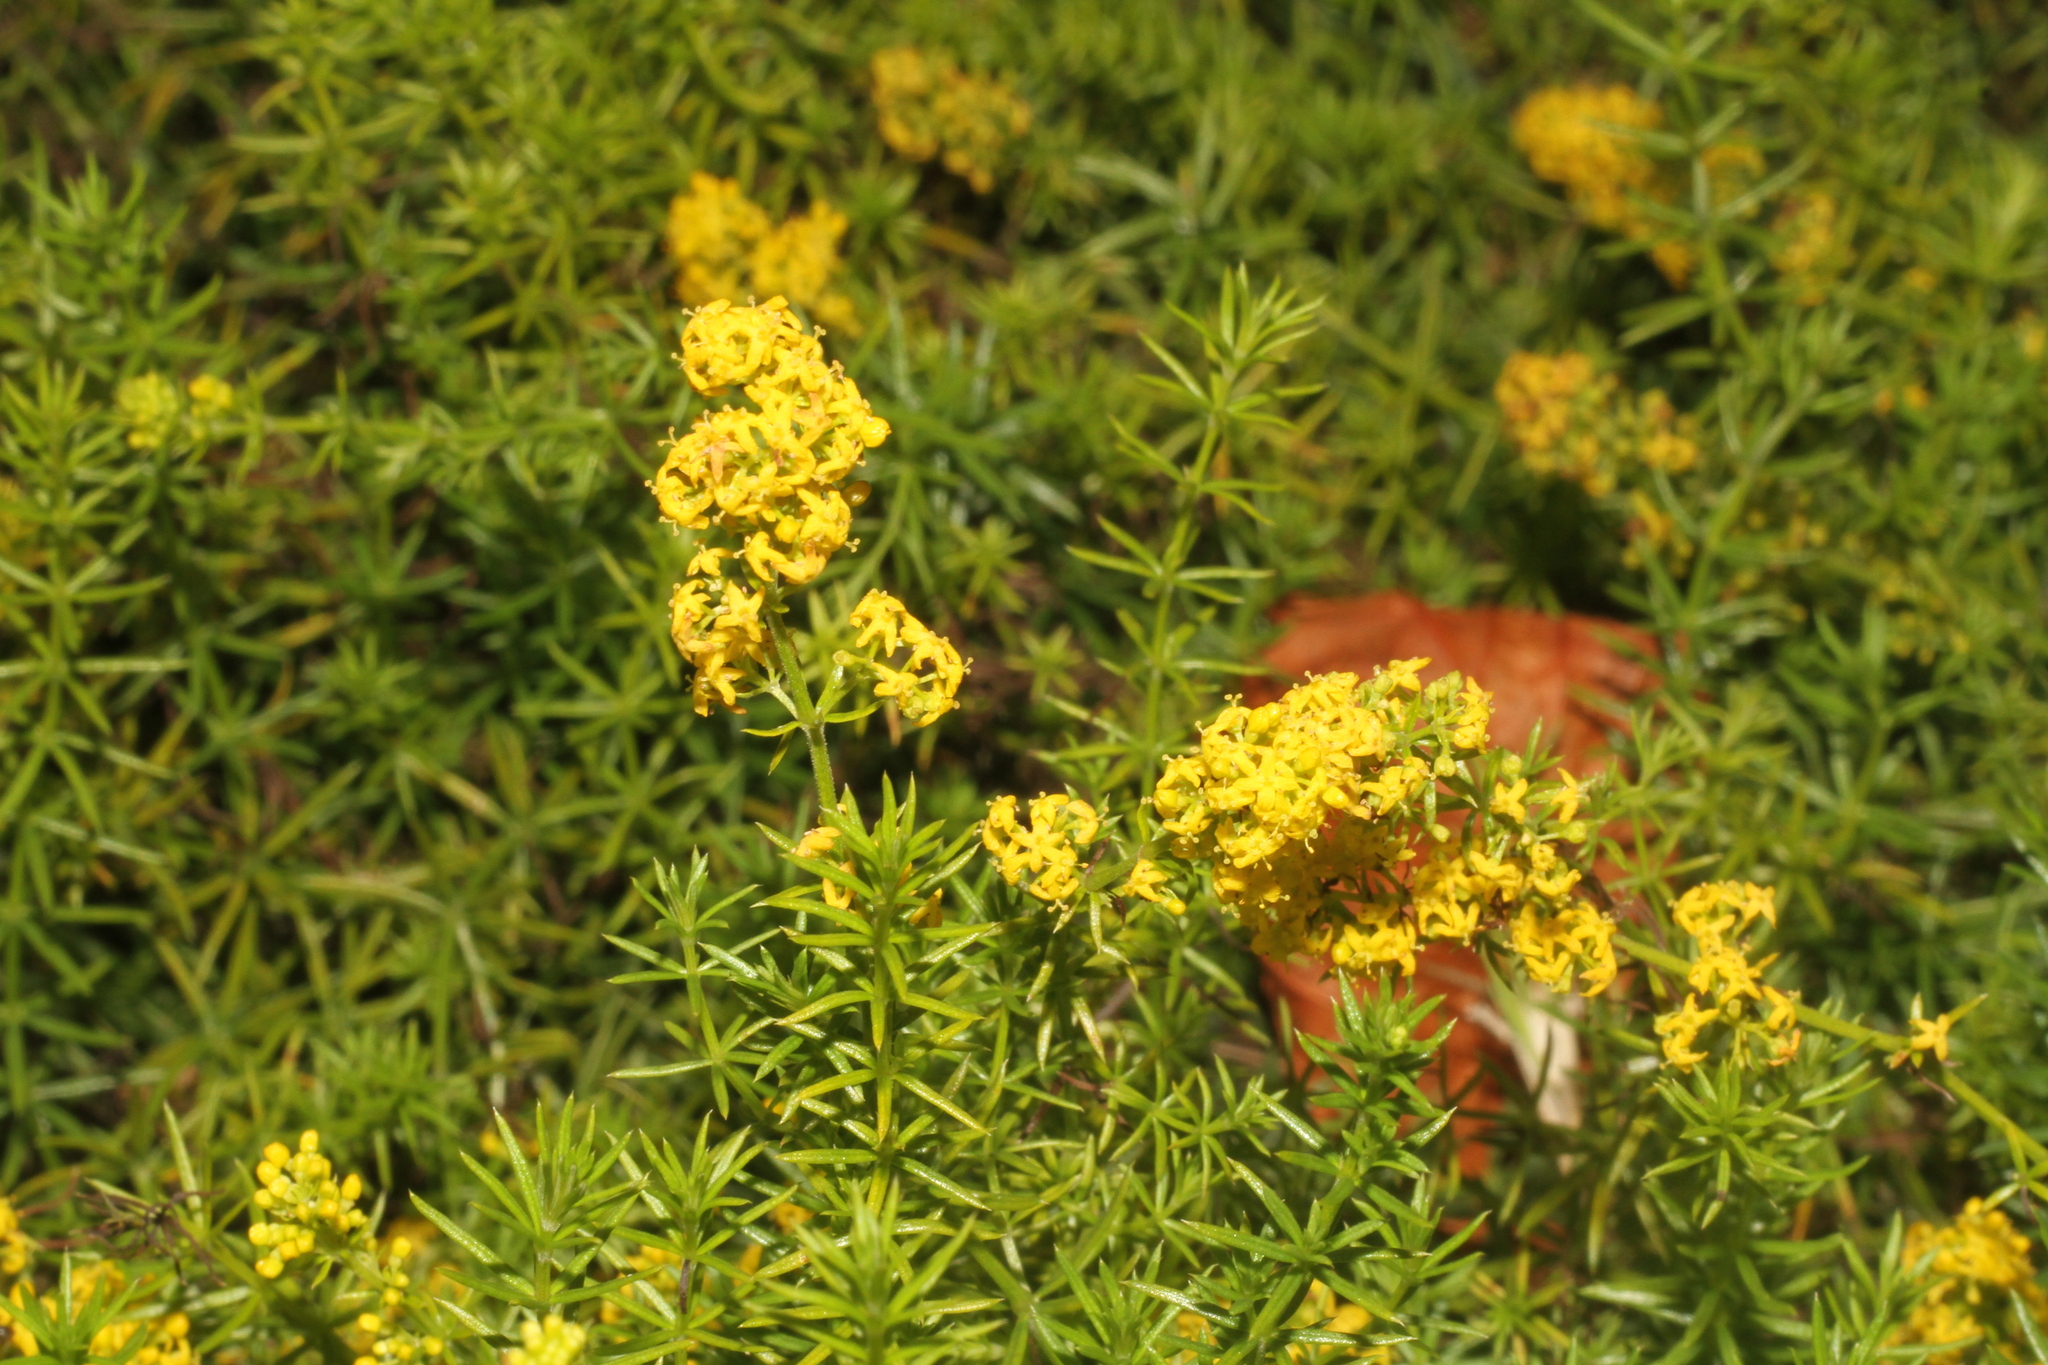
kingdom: Plantae
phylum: Tracheophyta
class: Magnoliopsida
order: Gentianales
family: Rubiaceae
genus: Galium
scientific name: Galium verum
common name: Lady's bedstraw
